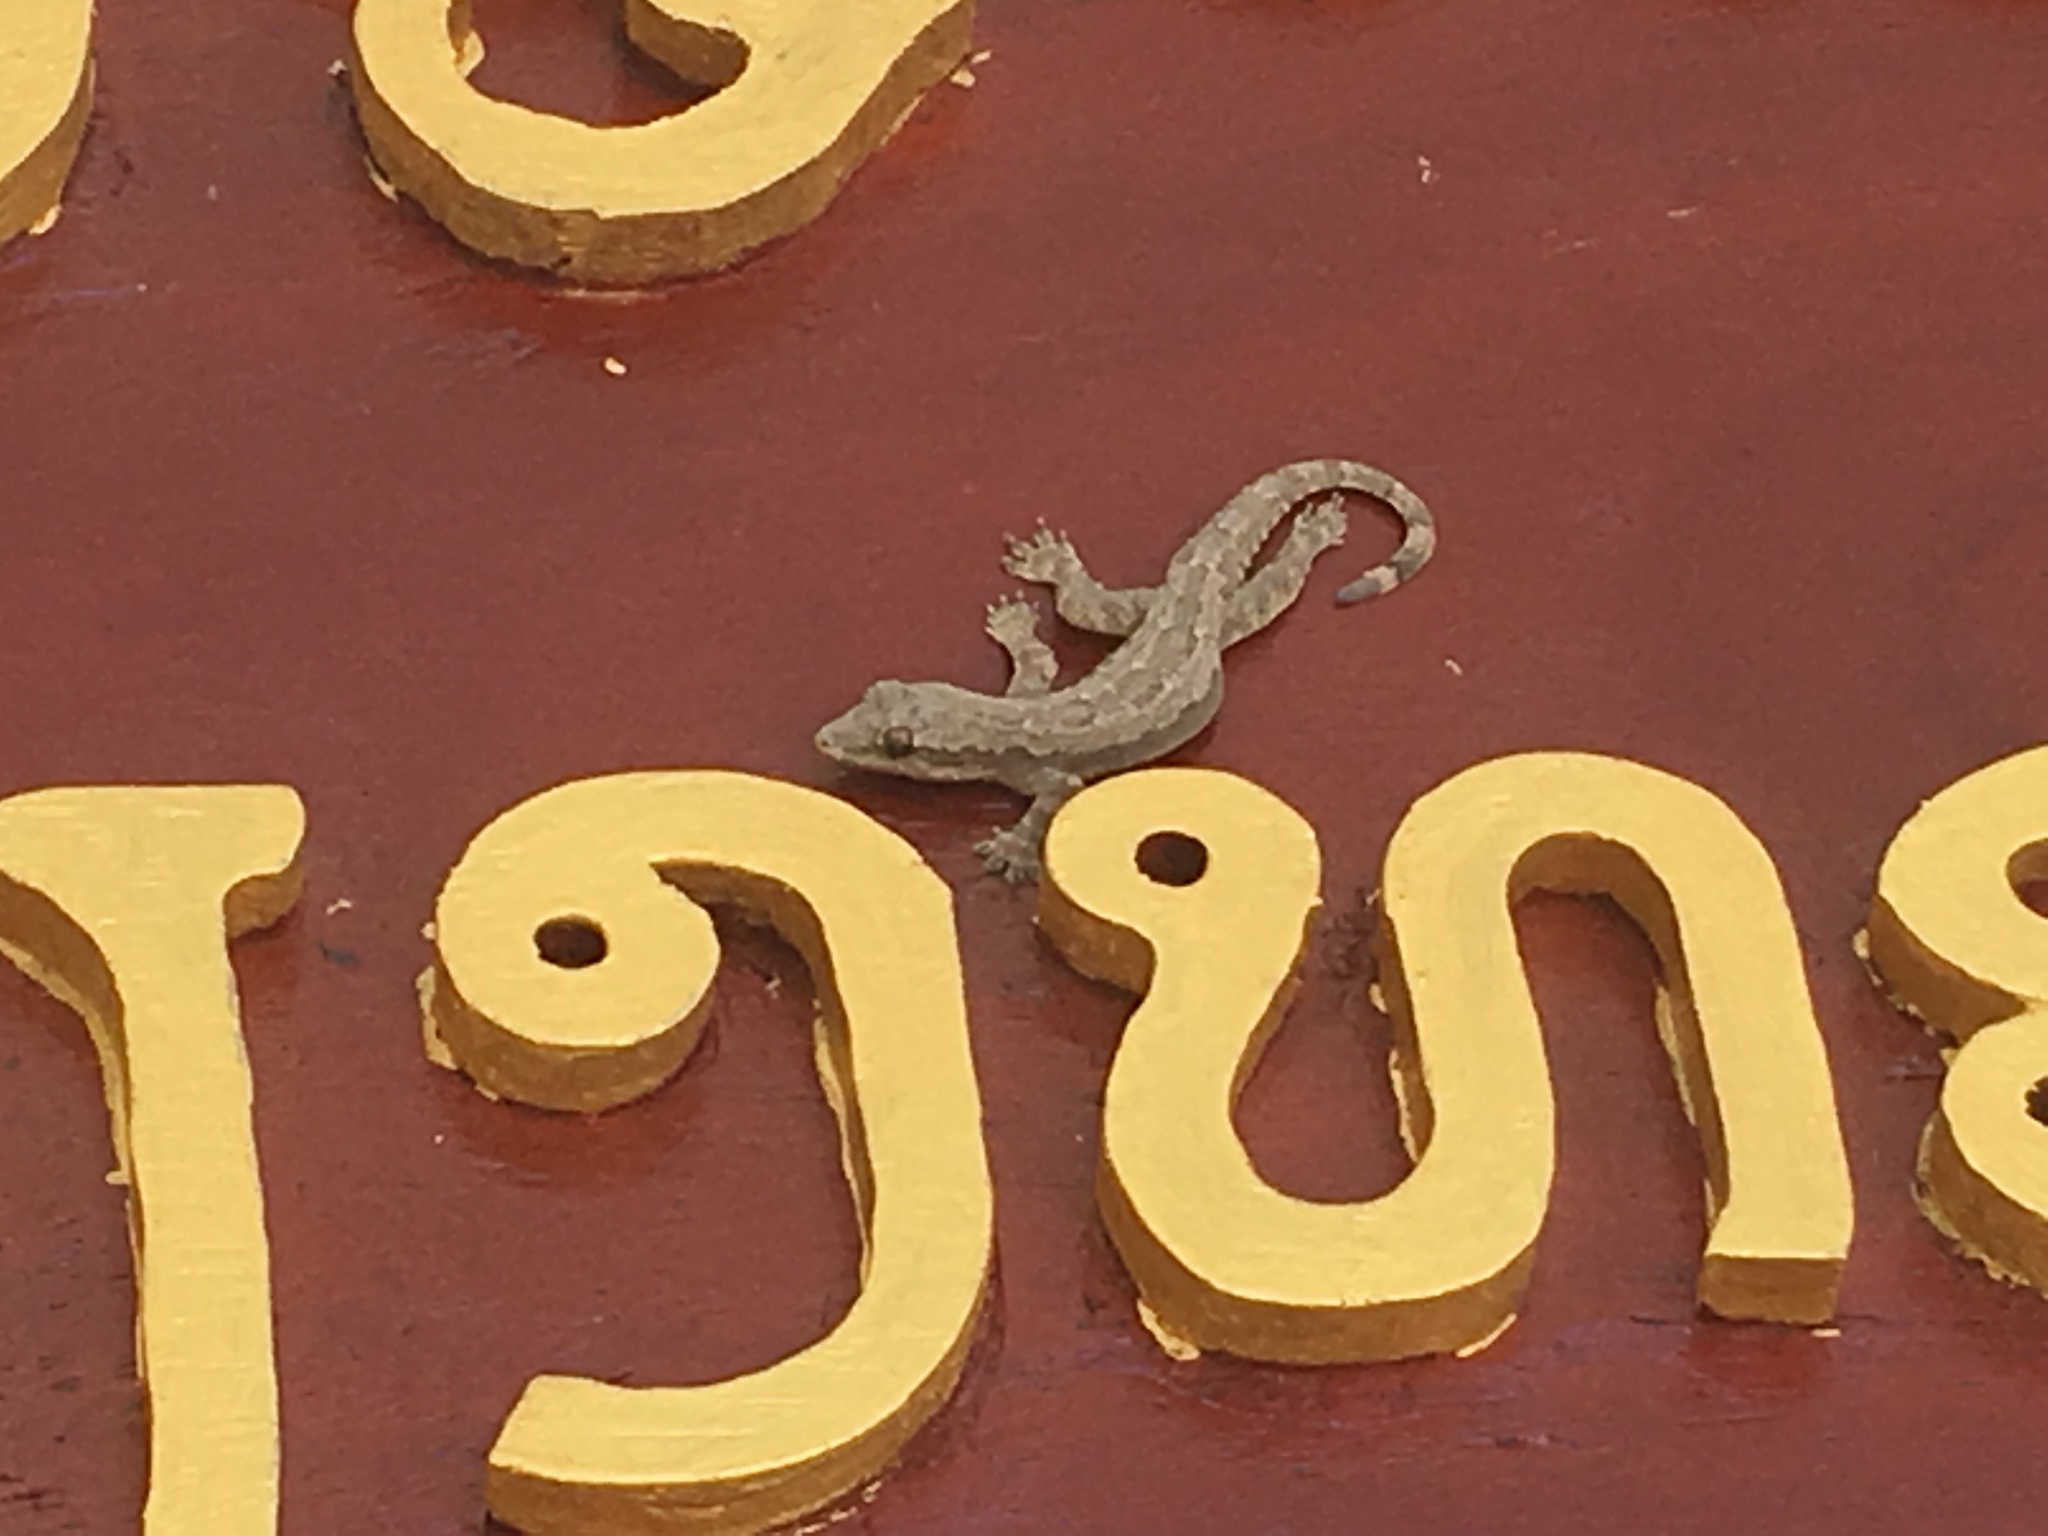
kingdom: Animalia
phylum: Chordata
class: Squamata
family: Gekkonidae
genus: Hemidactylus
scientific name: Hemidactylus platyurus
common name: Flat-tailed house gecko
